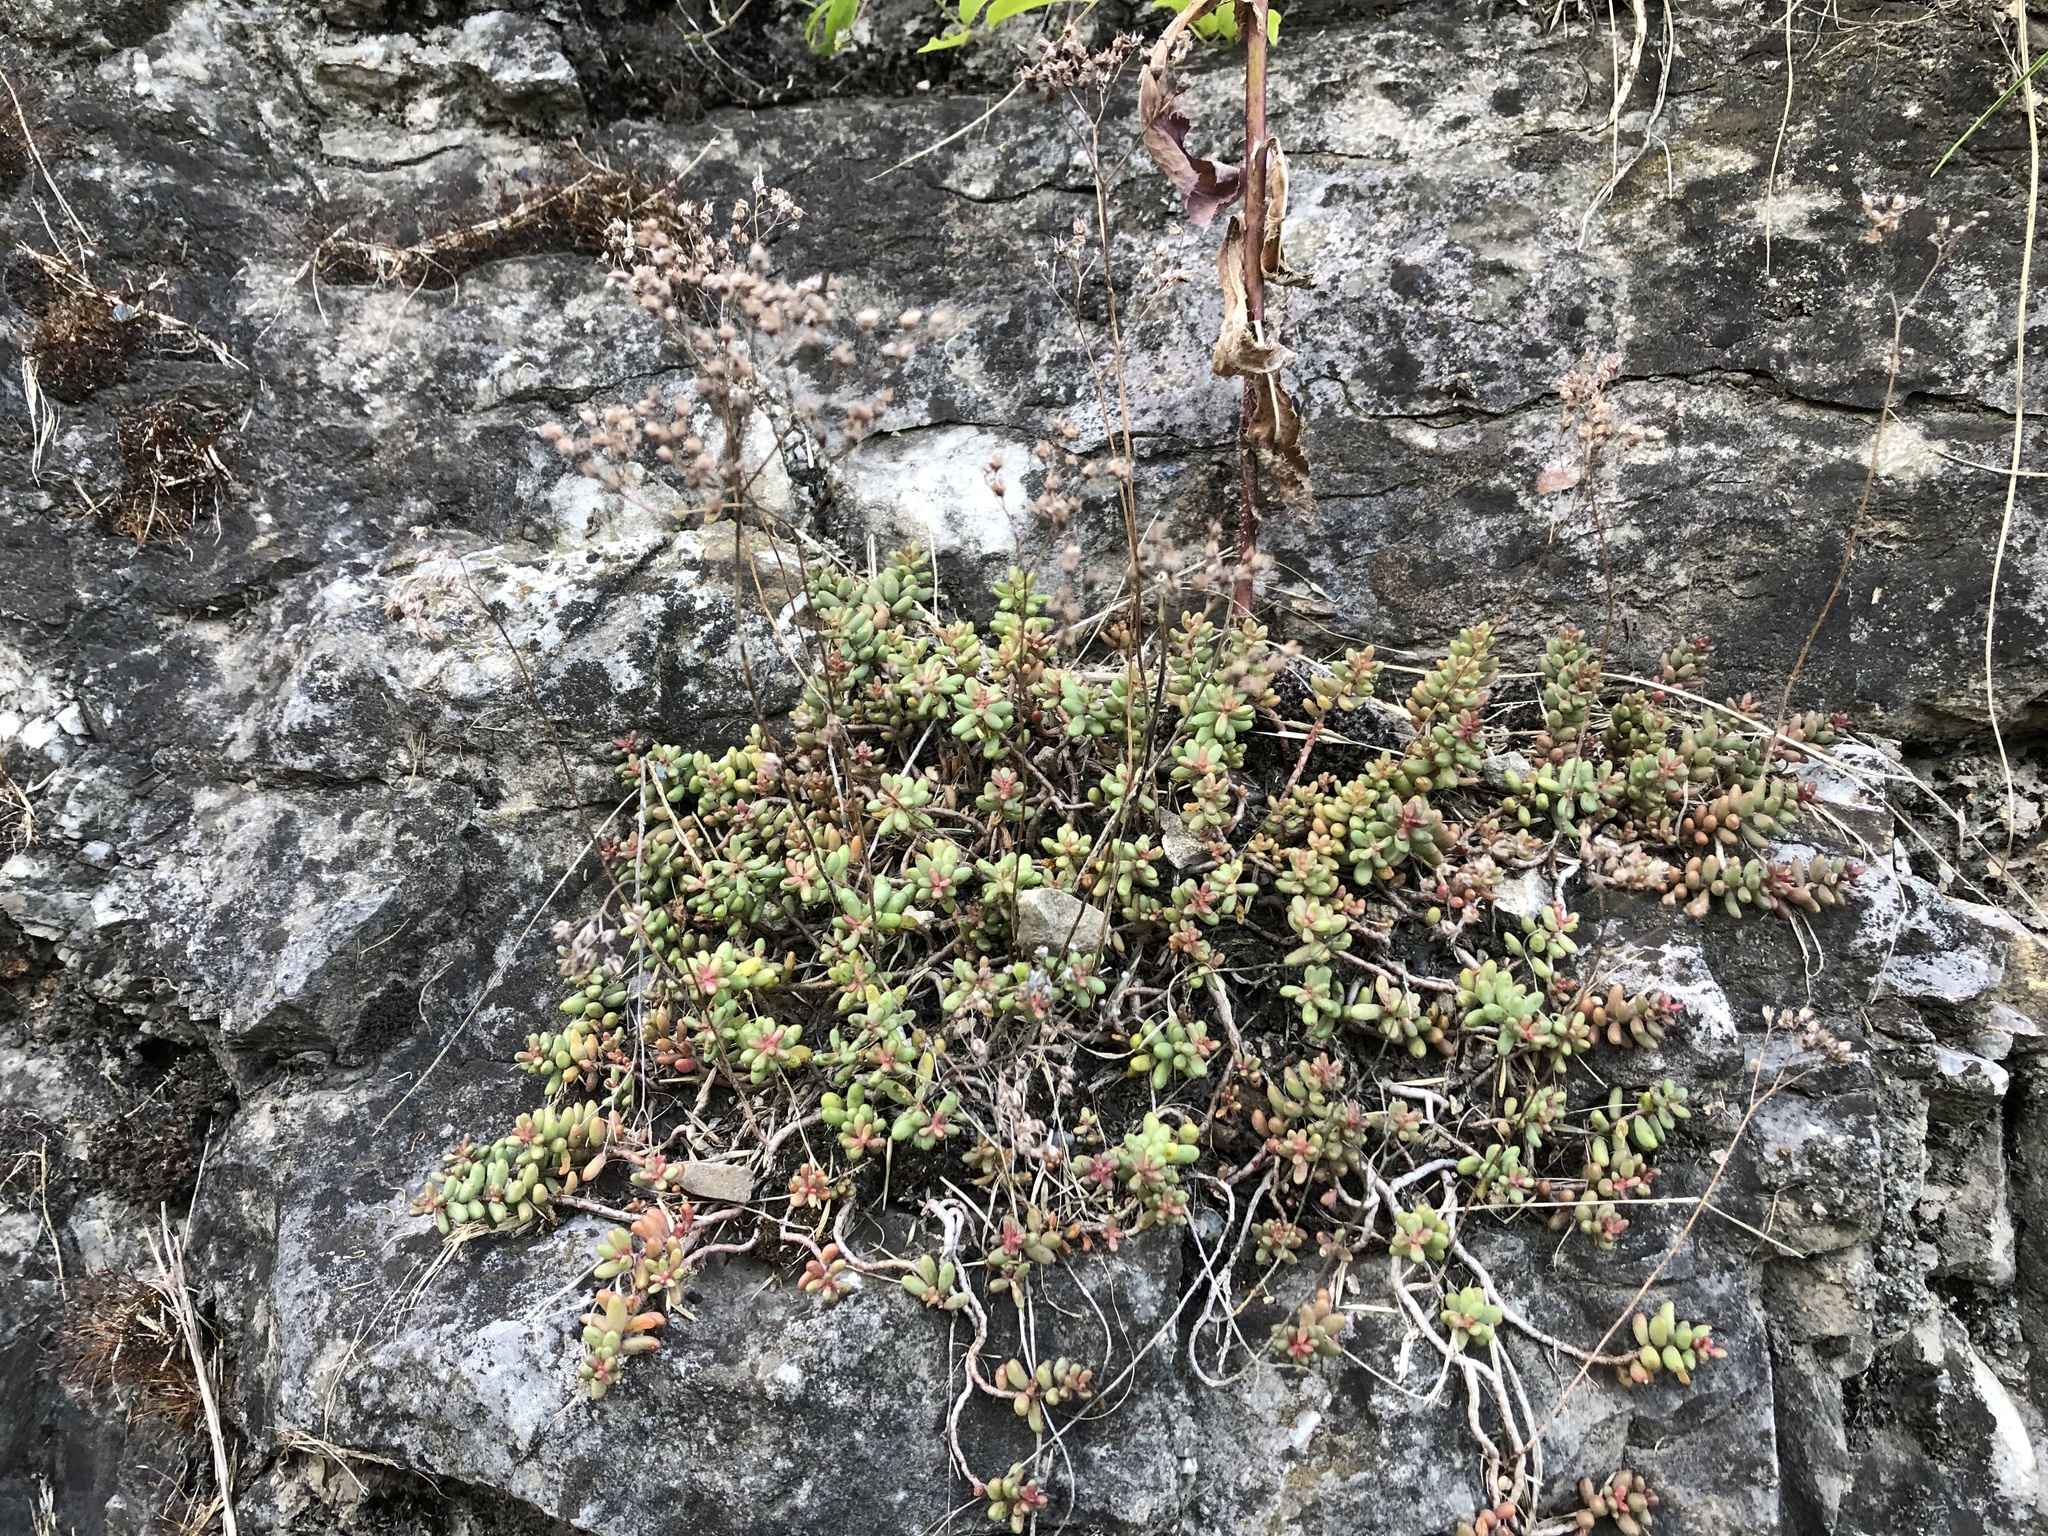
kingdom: Plantae
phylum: Tracheophyta
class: Magnoliopsida
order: Saxifragales
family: Crassulaceae
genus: Sedum
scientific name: Sedum album
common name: White stonecrop
